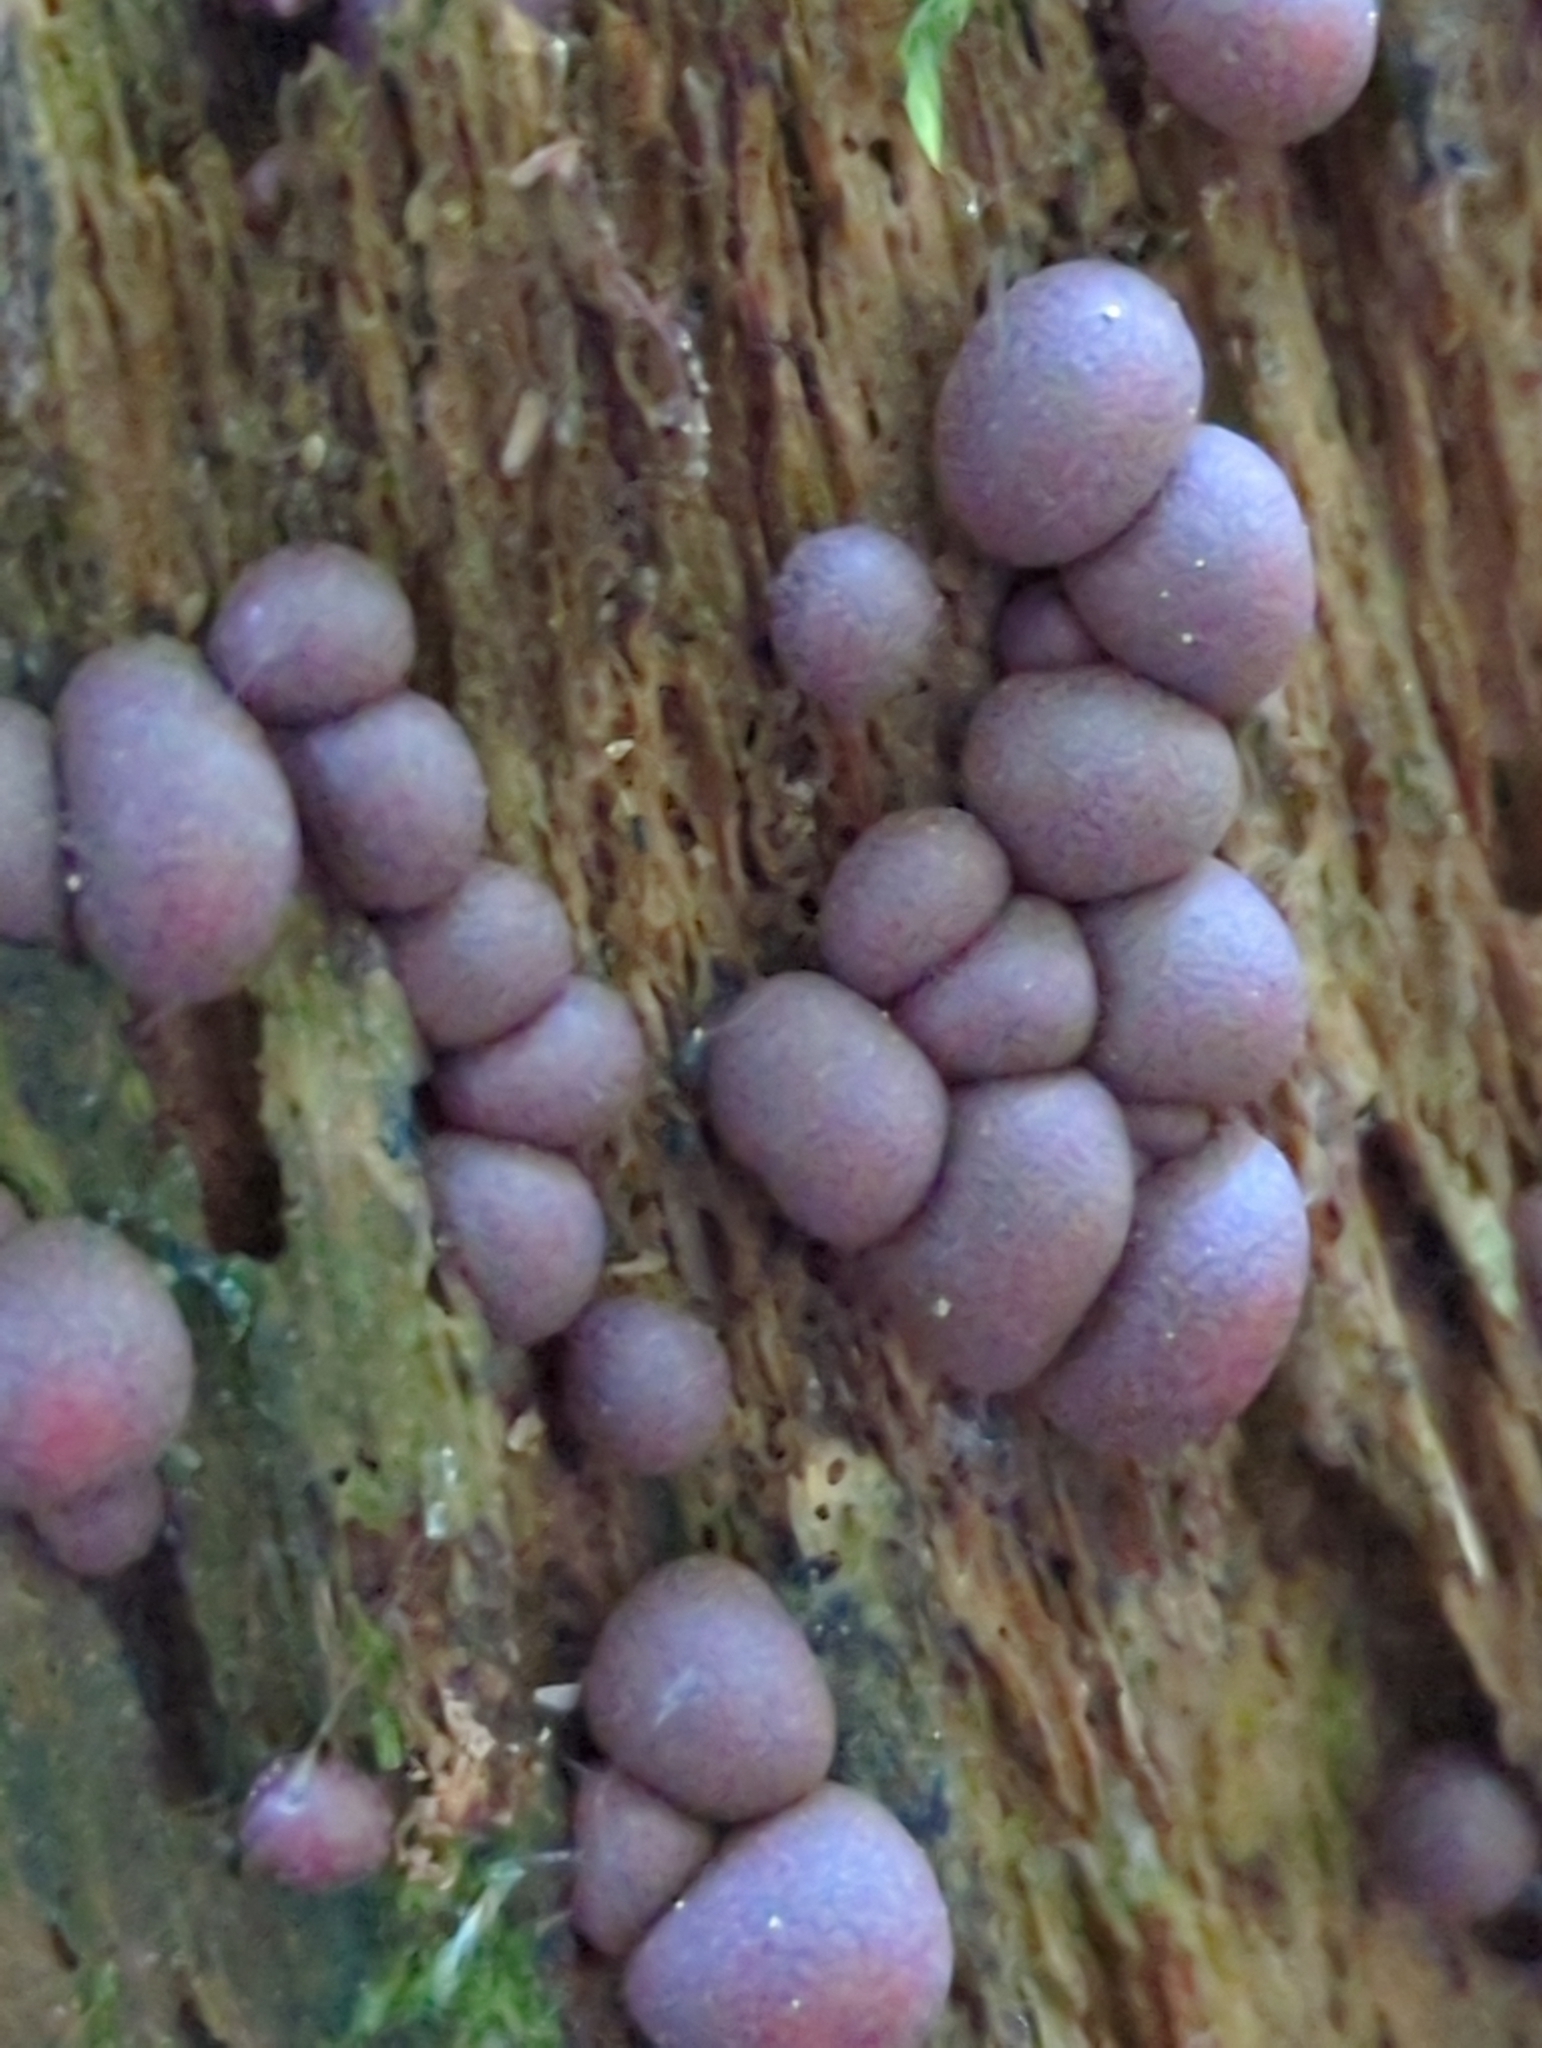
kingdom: Protozoa
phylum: Mycetozoa
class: Myxomycetes
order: Cribrariales
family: Tubiferaceae
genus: Lycogala
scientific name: Lycogala epidendrum
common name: Wolf's milk
